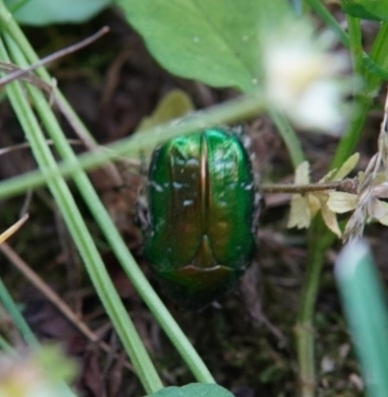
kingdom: Animalia
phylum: Arthropoda
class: Insecta
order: Coleoptera
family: Scarabaeidae
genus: Cetonia
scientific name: Cetonia aurata
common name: Rose chafer
